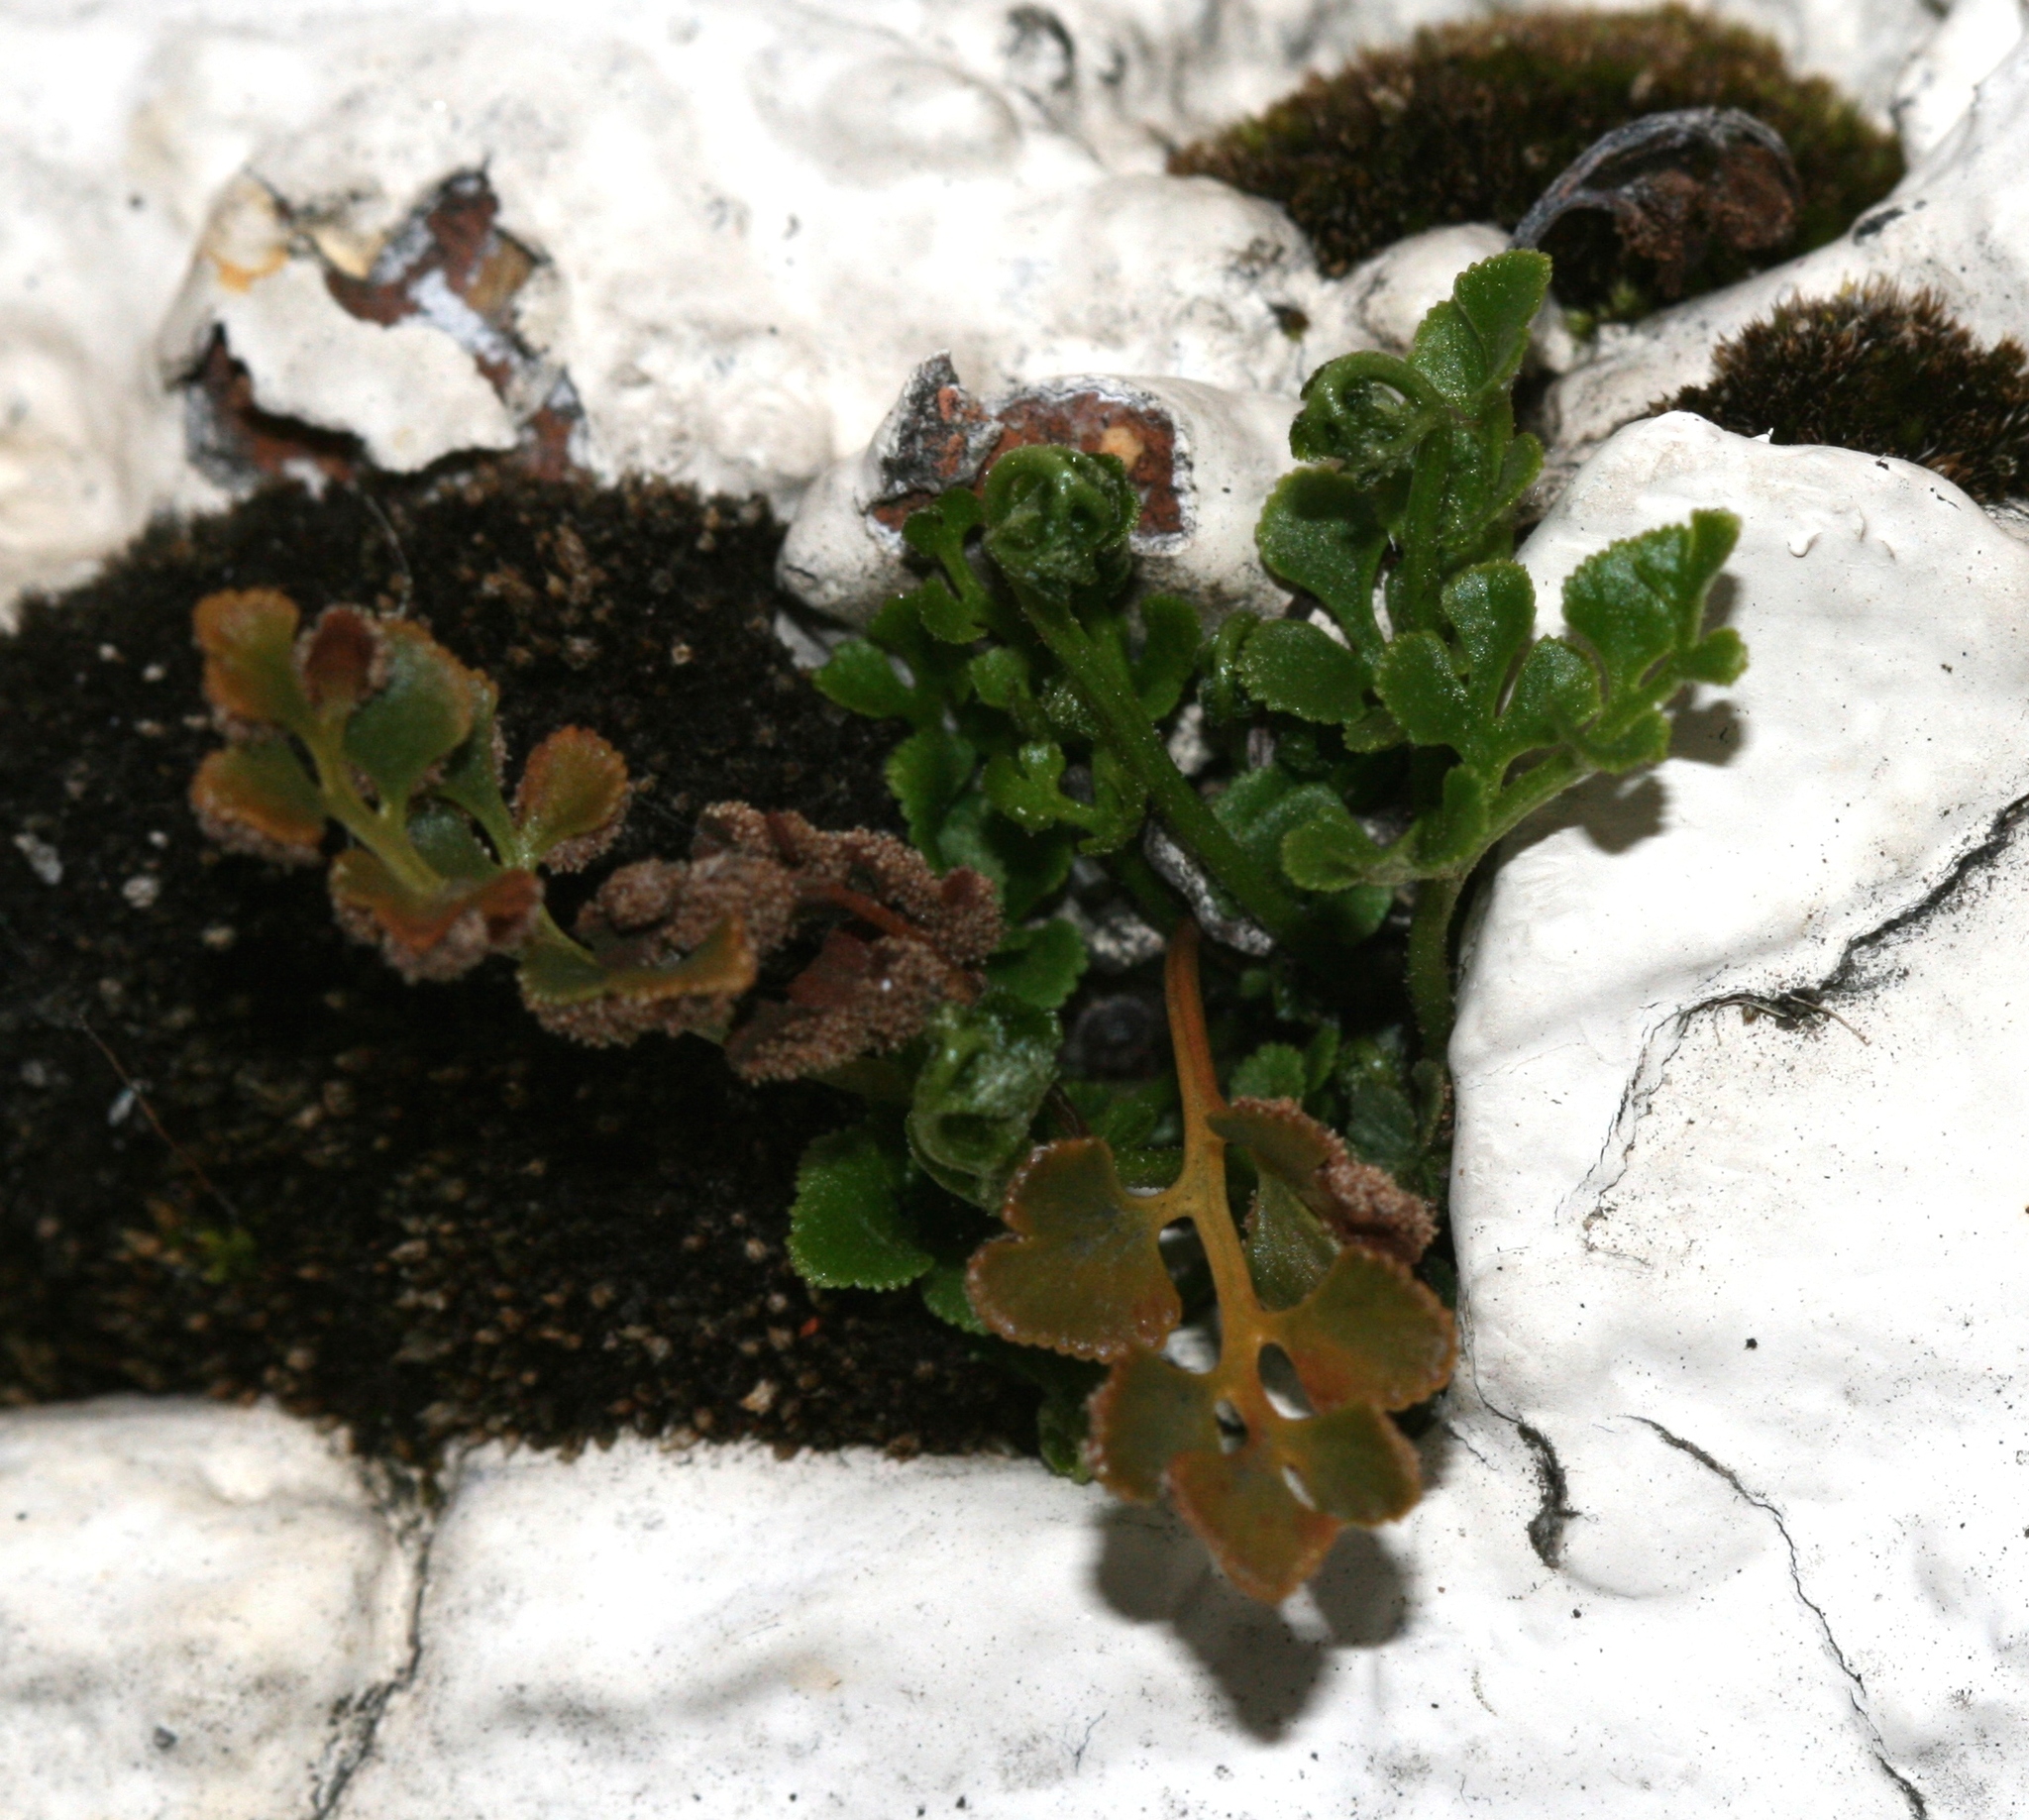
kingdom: Plantae
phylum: Tracheophyta
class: Polypodiopsida
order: Polypodiales
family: Aspleniaceae
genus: Asplenium
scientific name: Asplenium ruta-muraria
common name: Wall-rue
